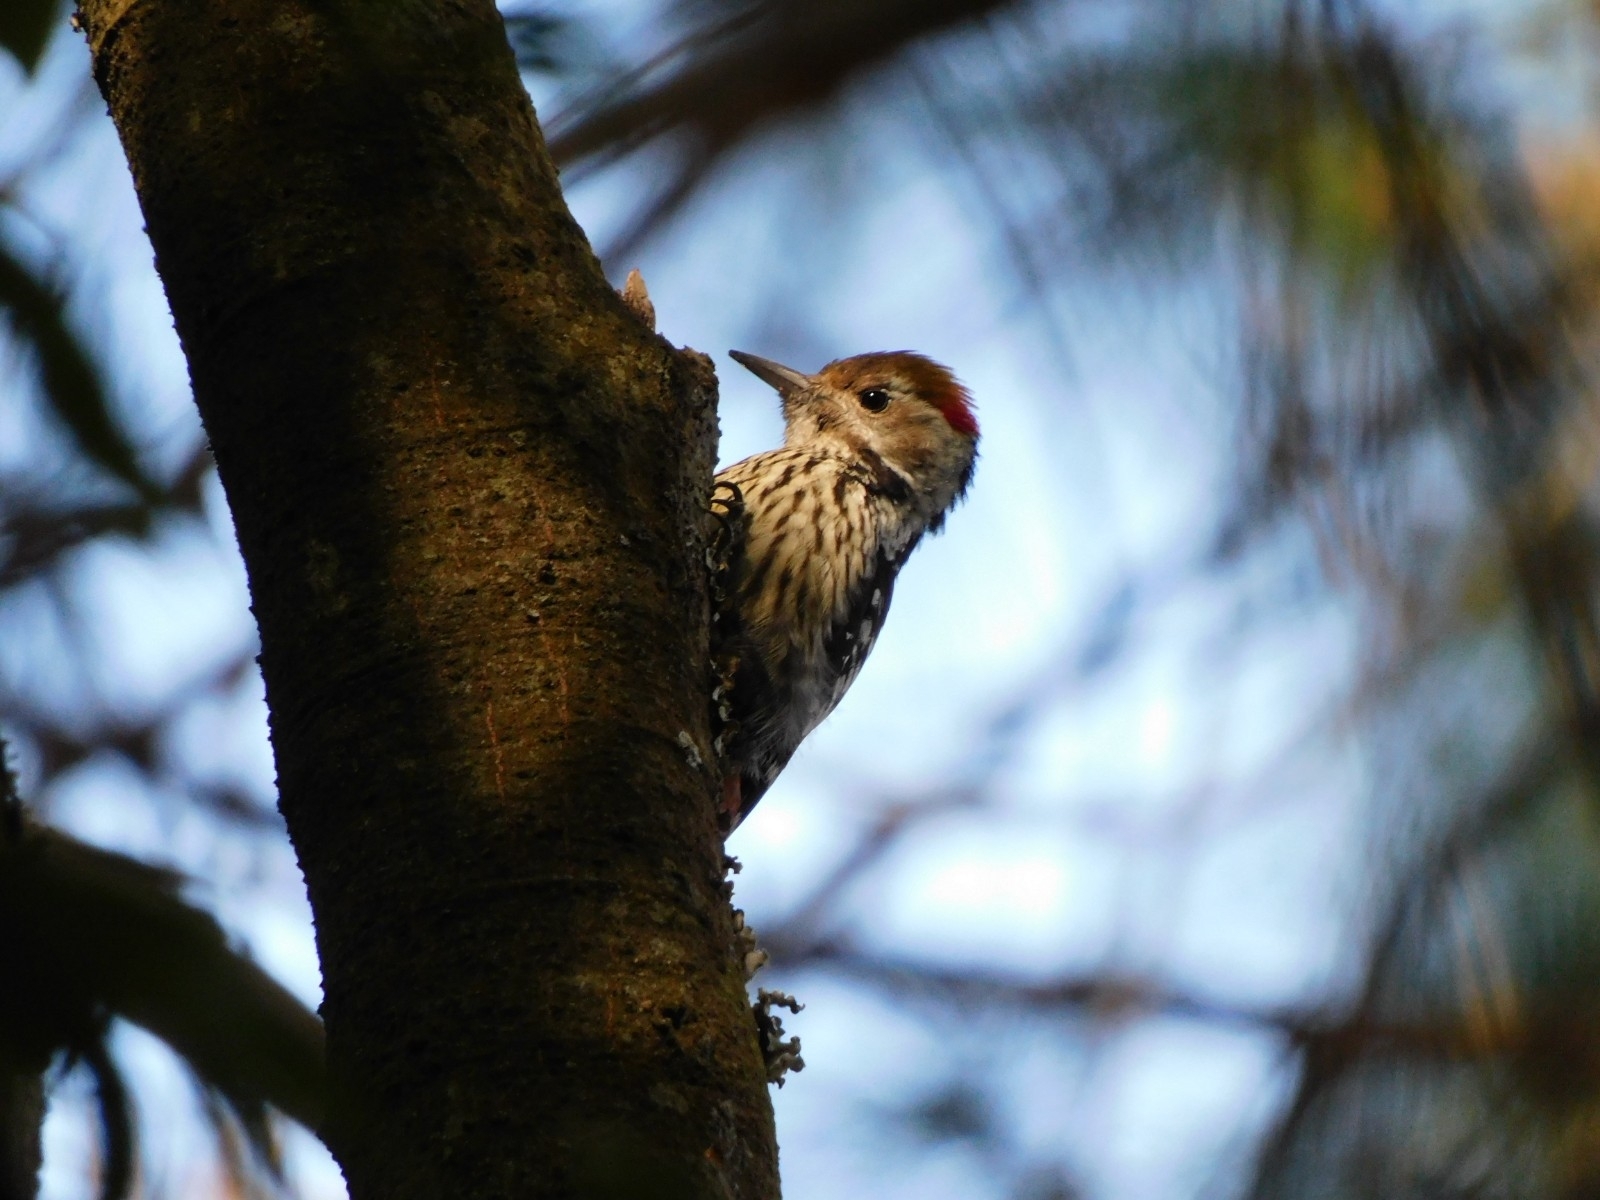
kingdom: Animalia
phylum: Chordata
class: Aves
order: Piciformes
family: Picidae
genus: Dendrocoptes
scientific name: Dendrocoptes auriceps
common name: Brown-fronted woodpecker
